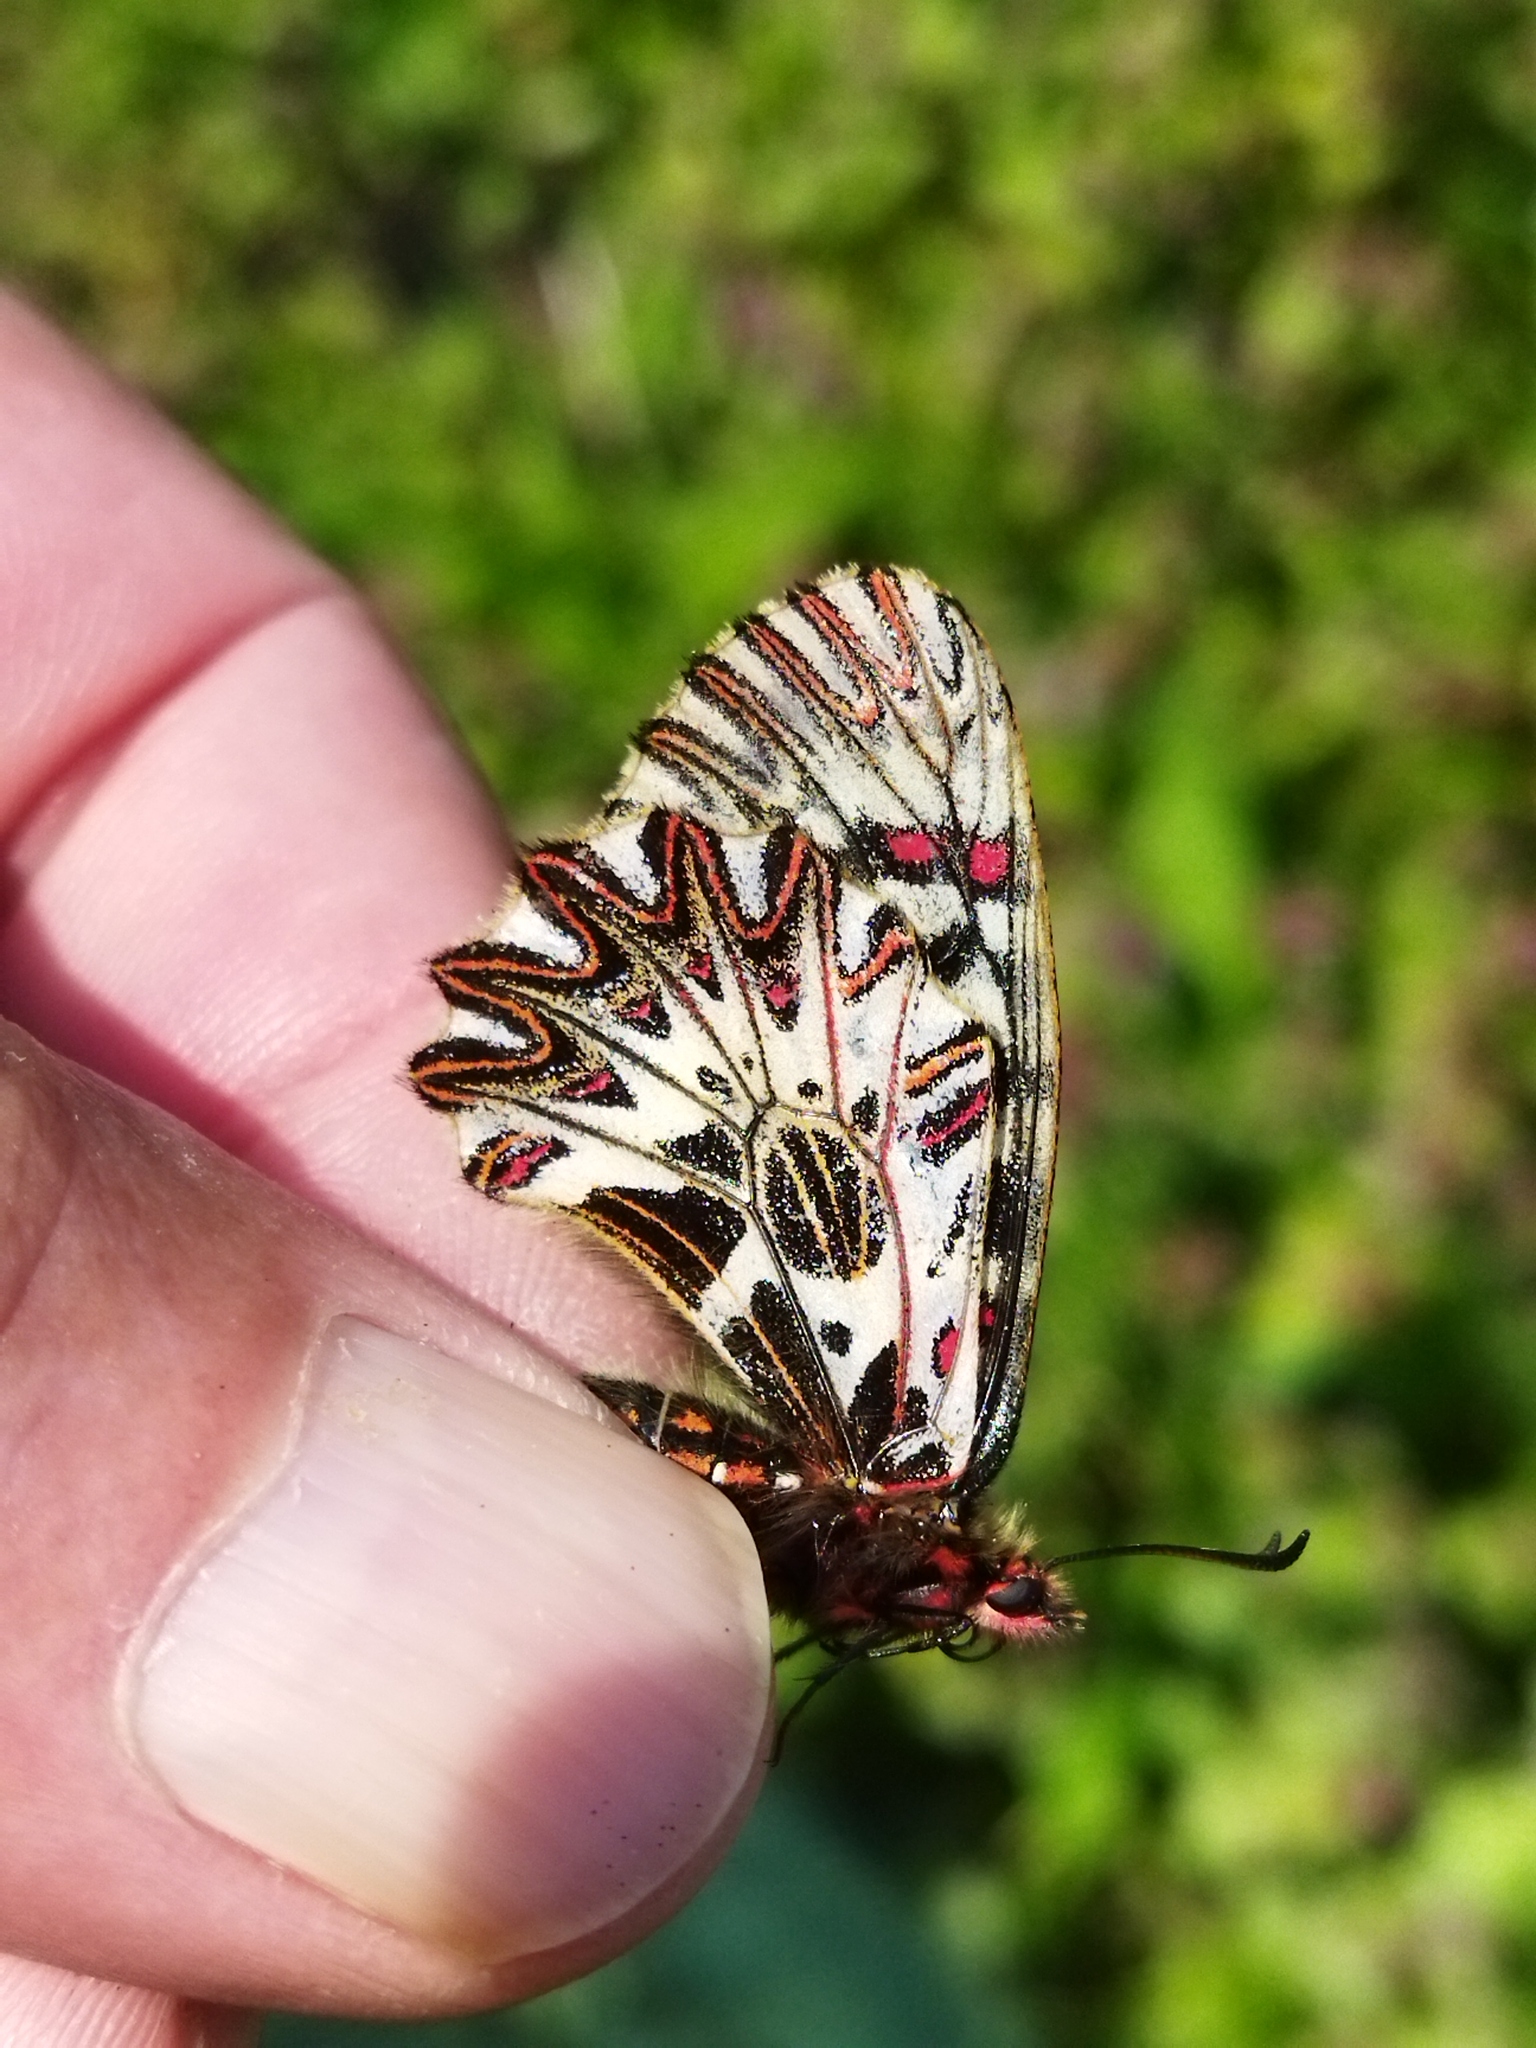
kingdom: Animalia
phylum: Arthropoda
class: Insecta
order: Lepidoptera
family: Papilionidae
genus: Zerynthia
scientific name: Zerynthia polyxena
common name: Southern festoon
